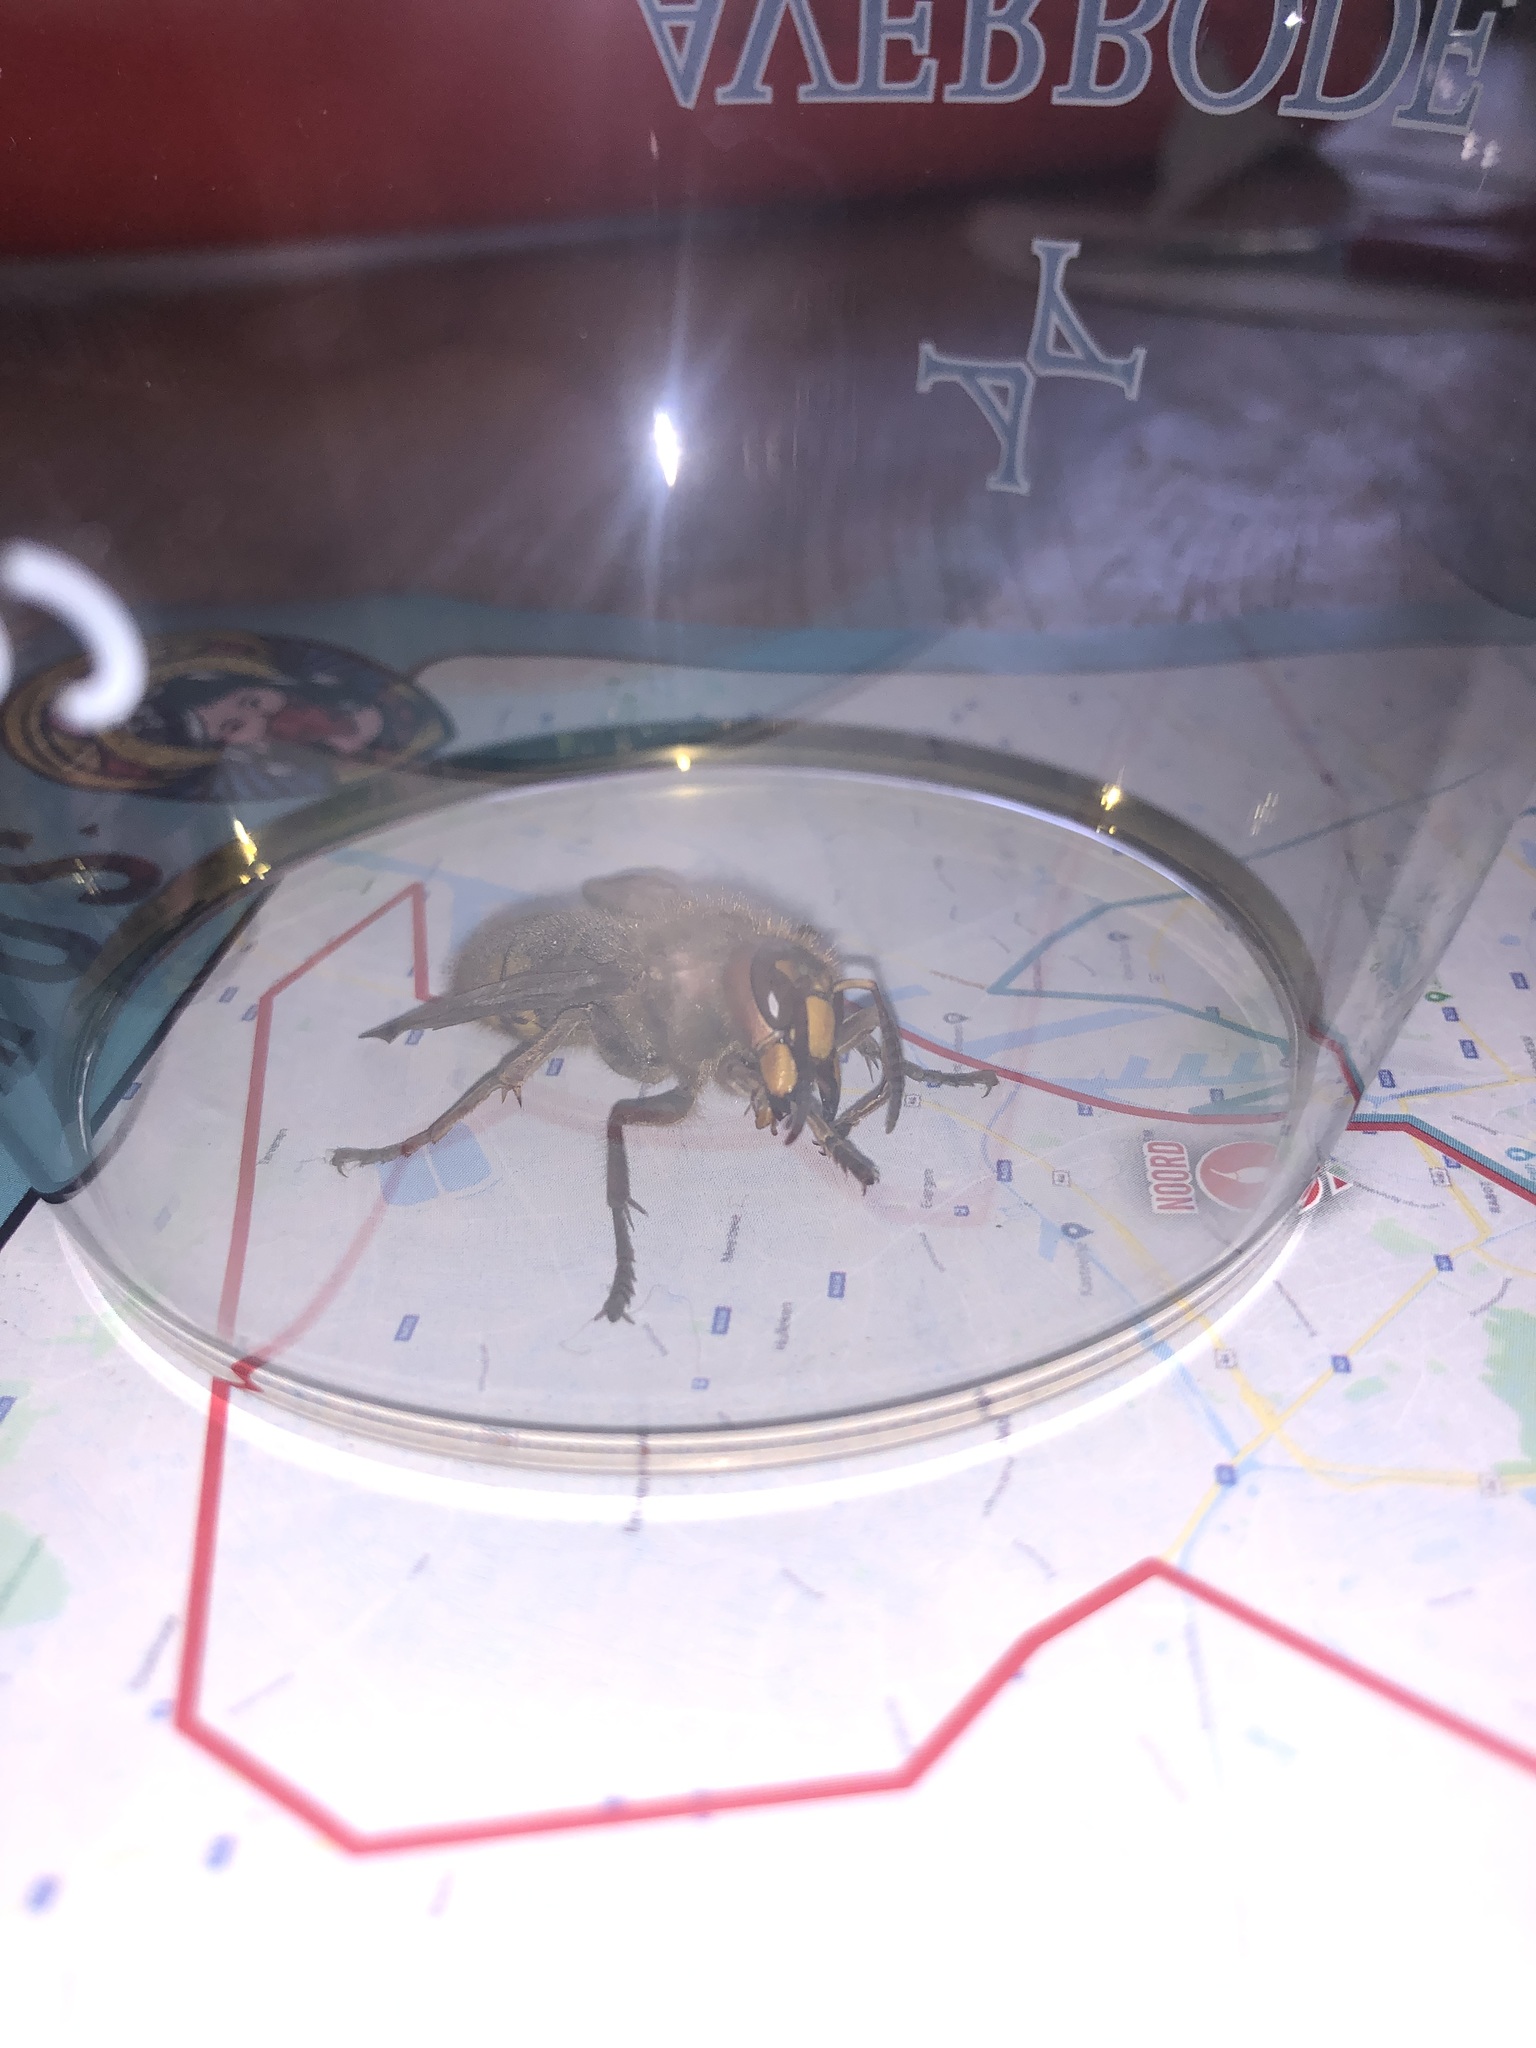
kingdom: Animalia
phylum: Arthropoda
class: Insecta
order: Hymenoptera
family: Vespidae
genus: Vespa
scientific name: Vespa crabro
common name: Hornet
